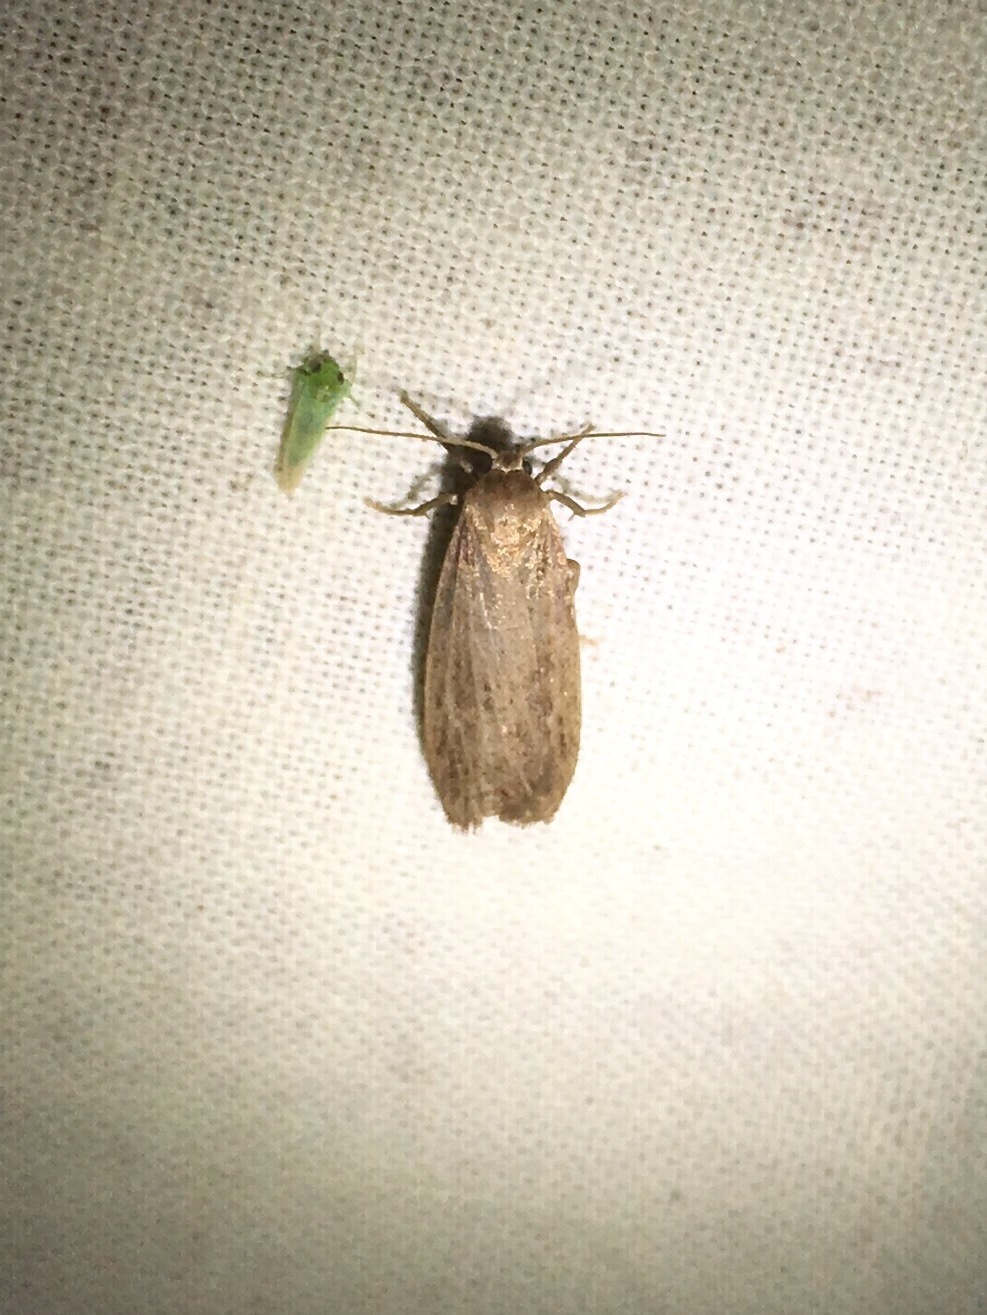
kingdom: Animalia
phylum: Arthropoda
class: Insecta
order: Lepidoptera
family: Erebidae
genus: Crambidia
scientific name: Crambidia pallida
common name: Pale lichen moth
